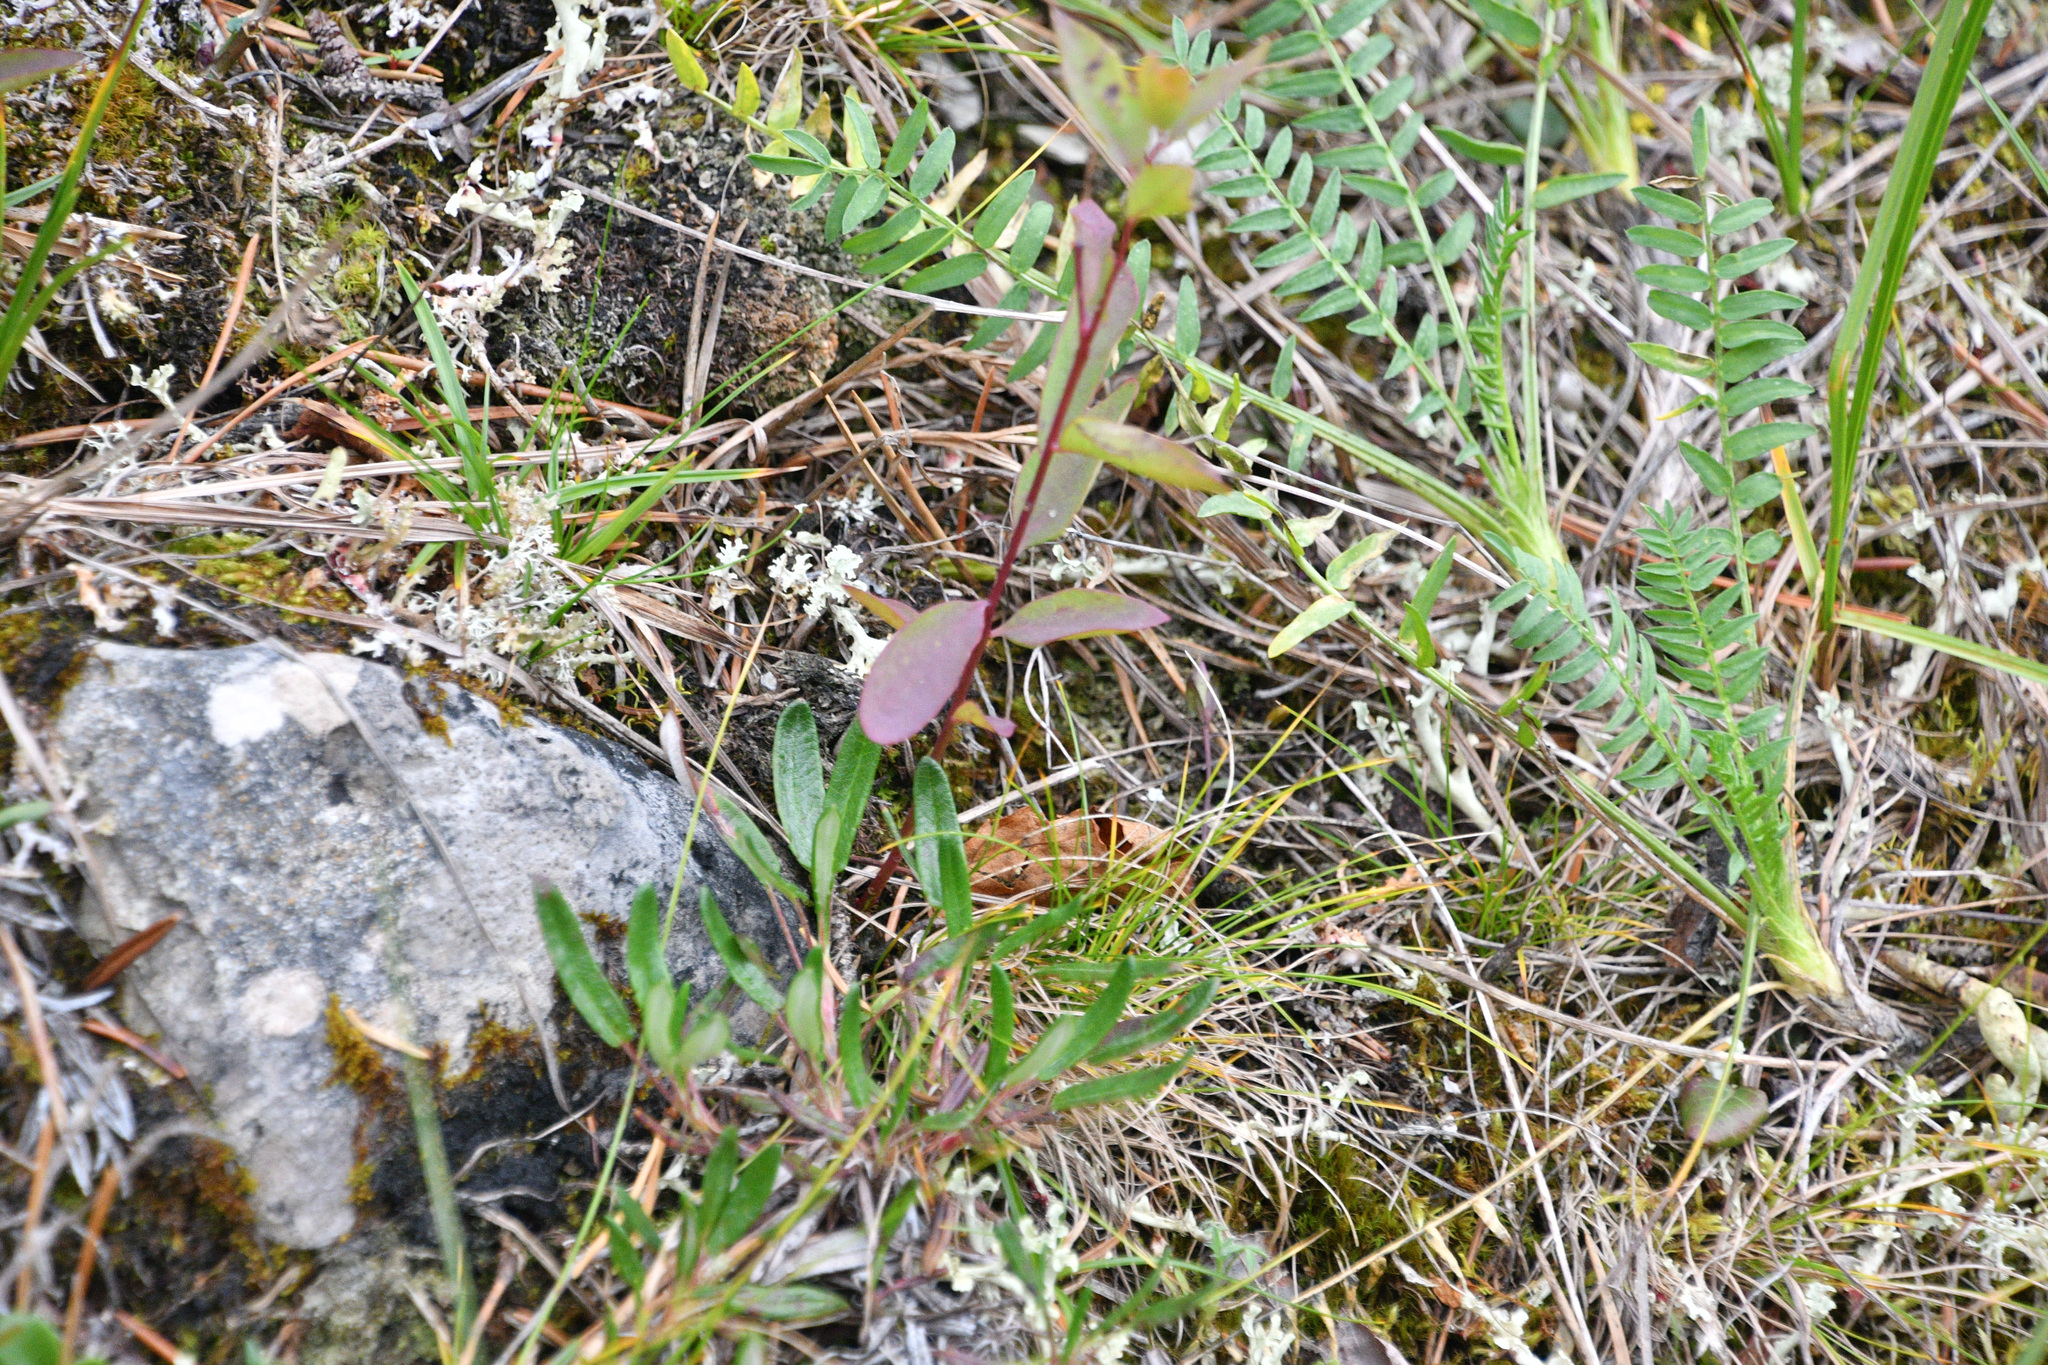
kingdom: Plantae
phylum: Tracheophyta
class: Magnoliopsida
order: Santalales
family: Comandraceae
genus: Geocaulon
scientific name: Geocaulon lividum
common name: Earthberry
